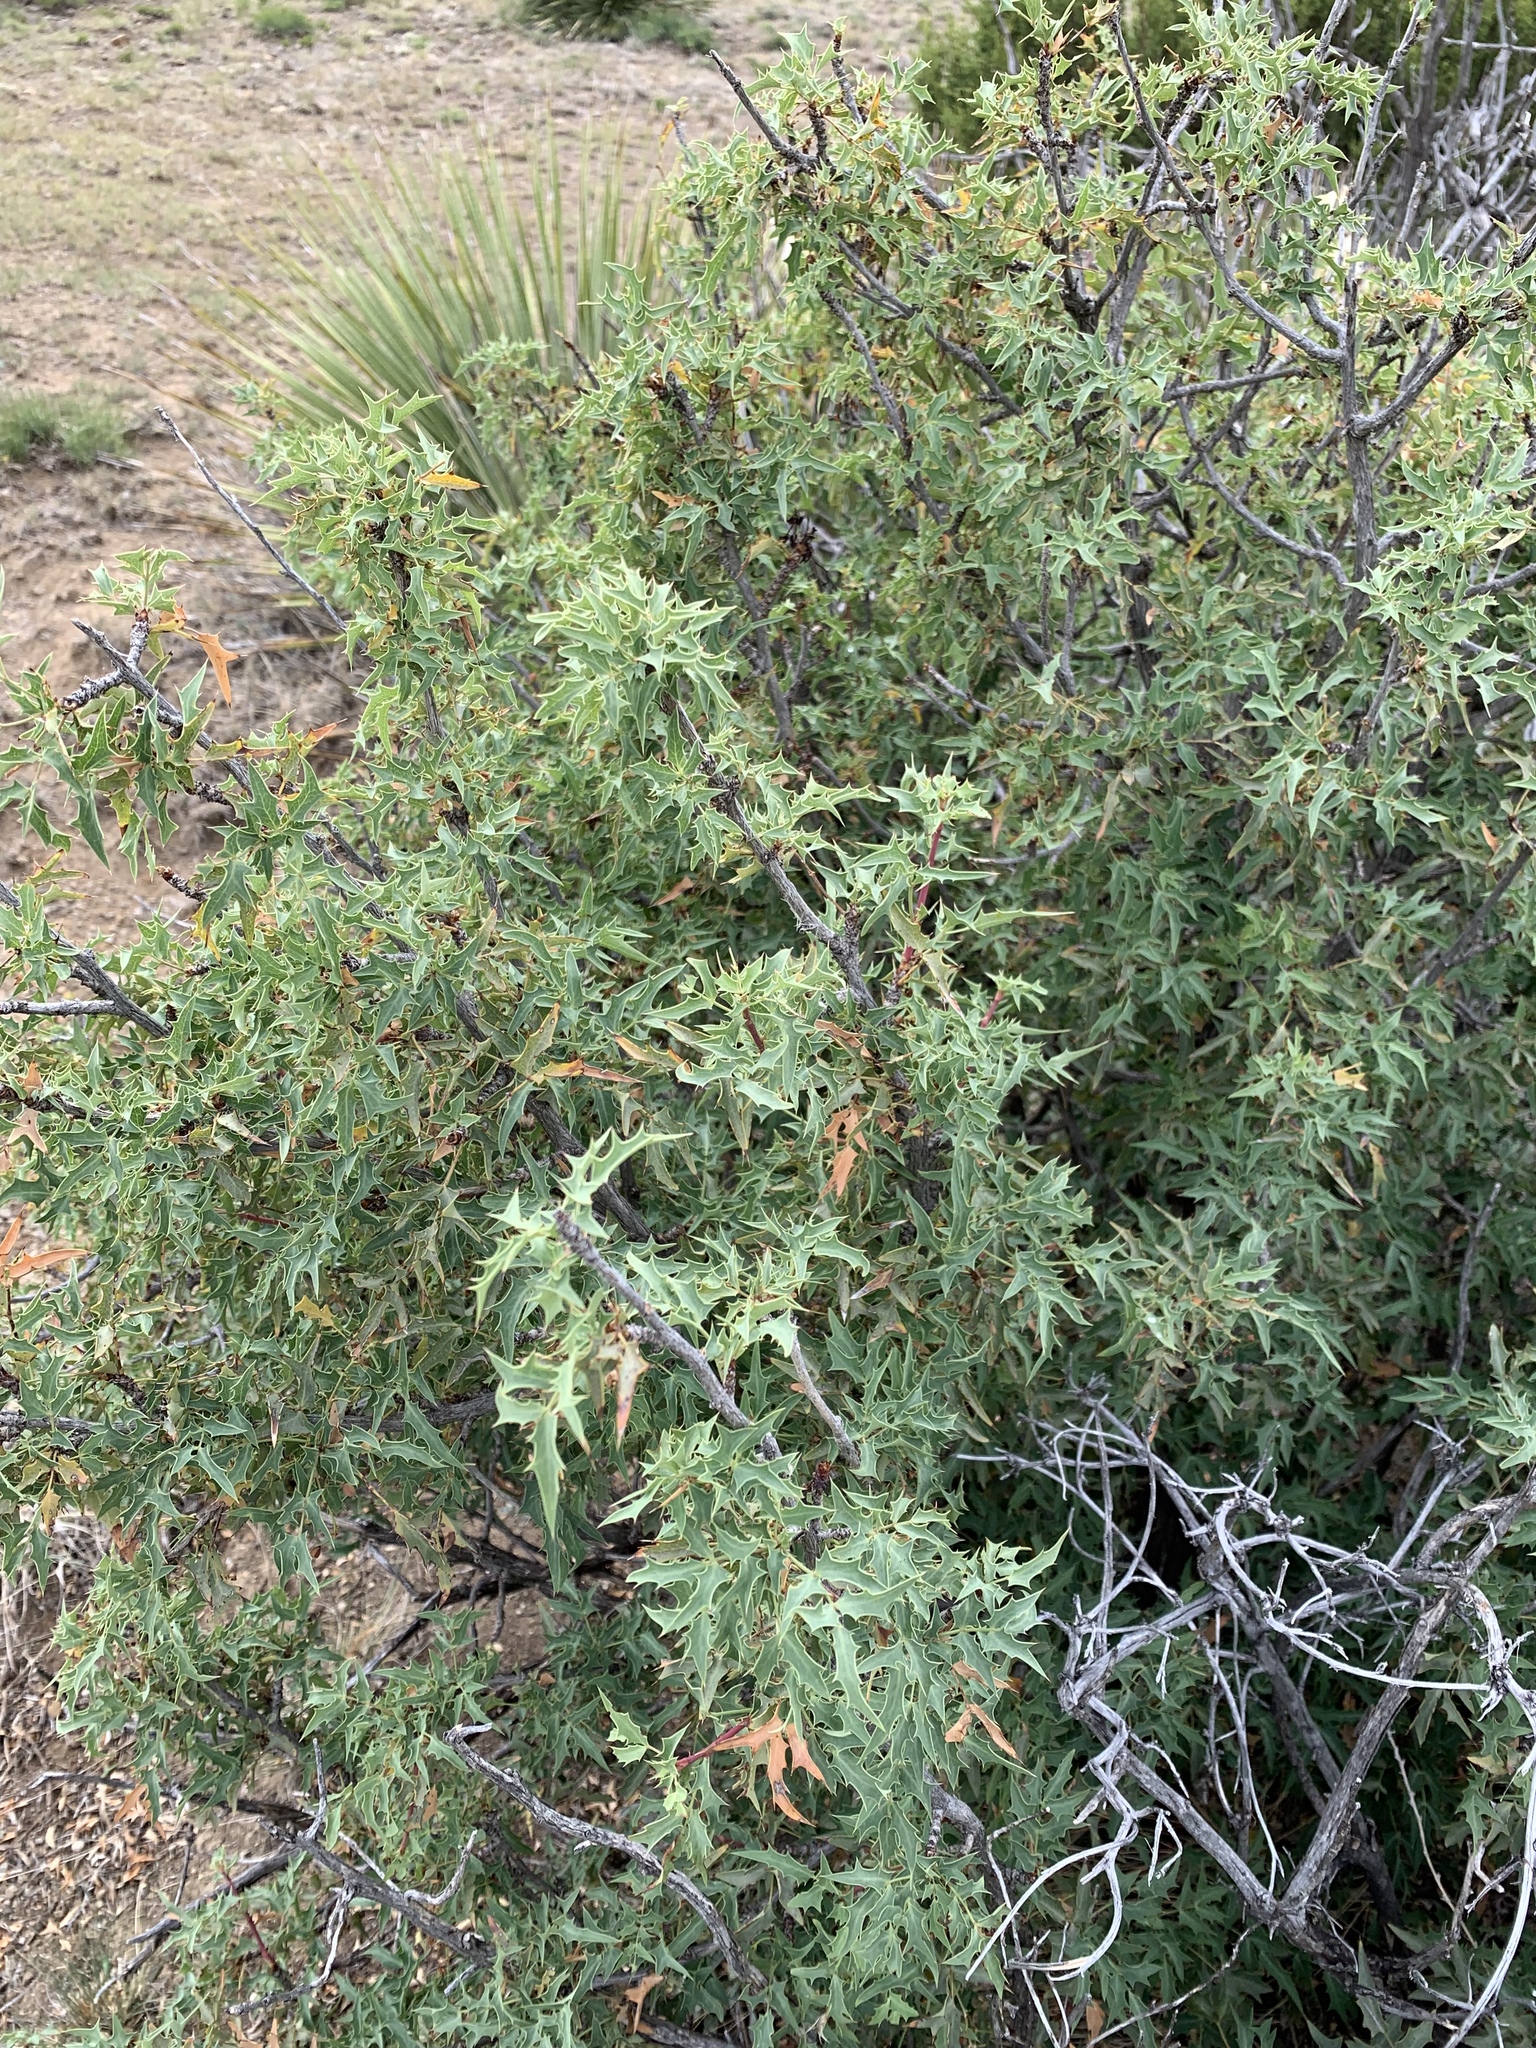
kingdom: Plantae
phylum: Tracheophyta
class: Magnoliopsida
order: Fabales
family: Fabaceae
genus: Prosopis
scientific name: Prosopis glandulosa
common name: Honey mesquite
